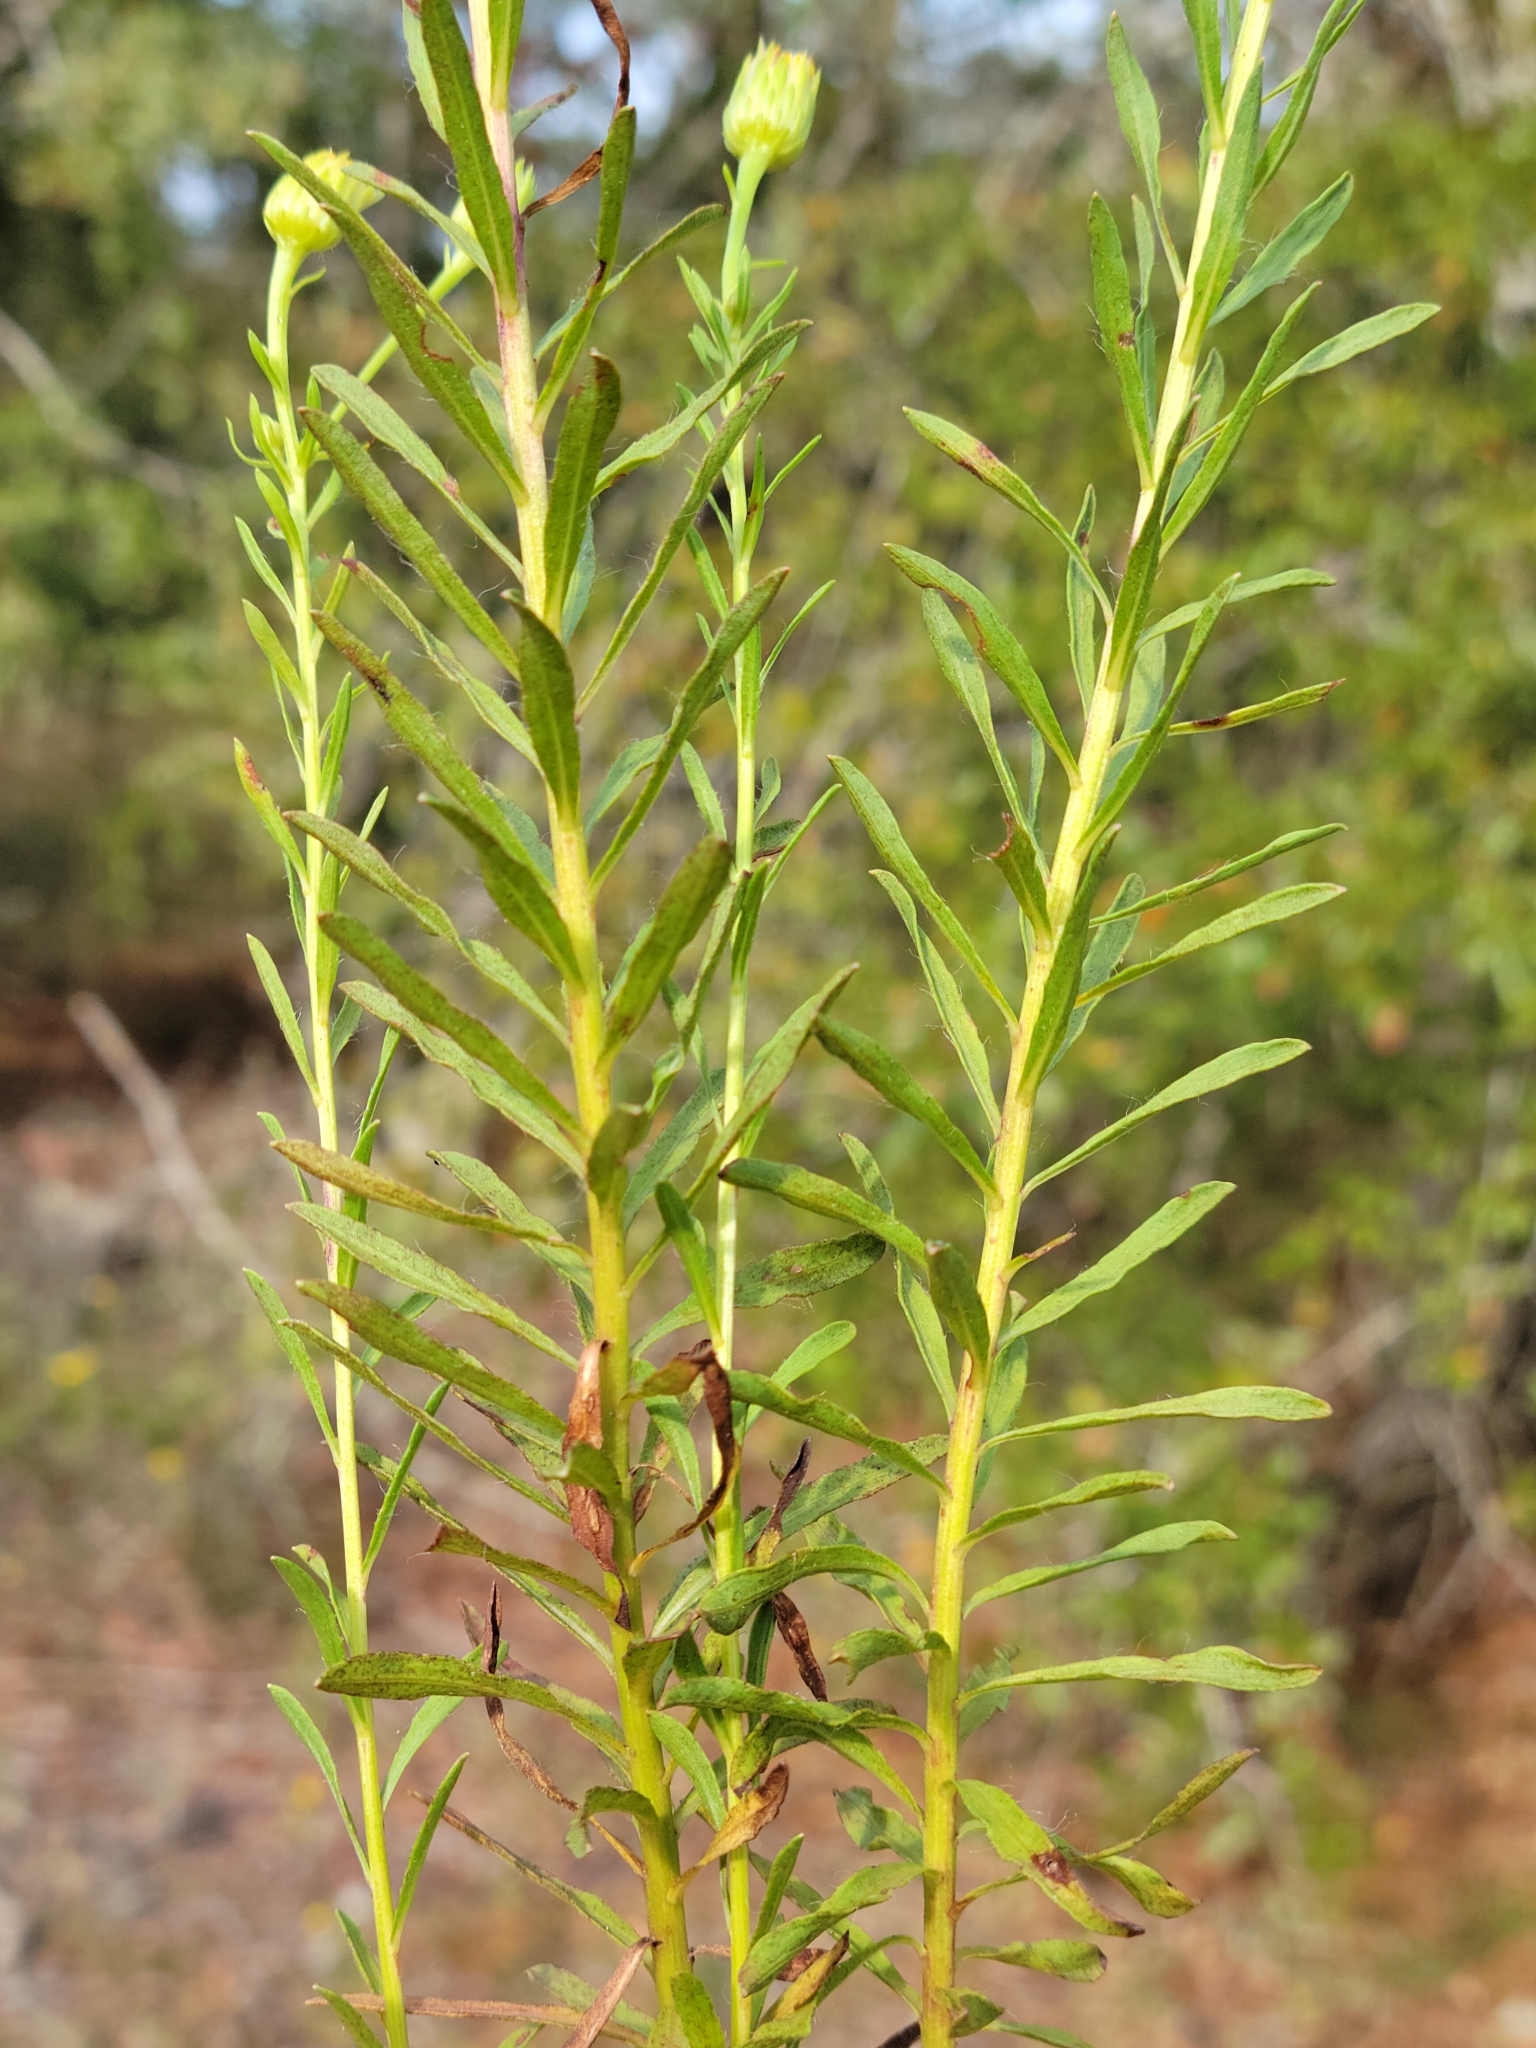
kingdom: Plantae
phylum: Tracheophyta
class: Magnoliopsida
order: Asterales
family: Asteraceae
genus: Chrysopsis
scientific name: Chrysopsis gossypina
